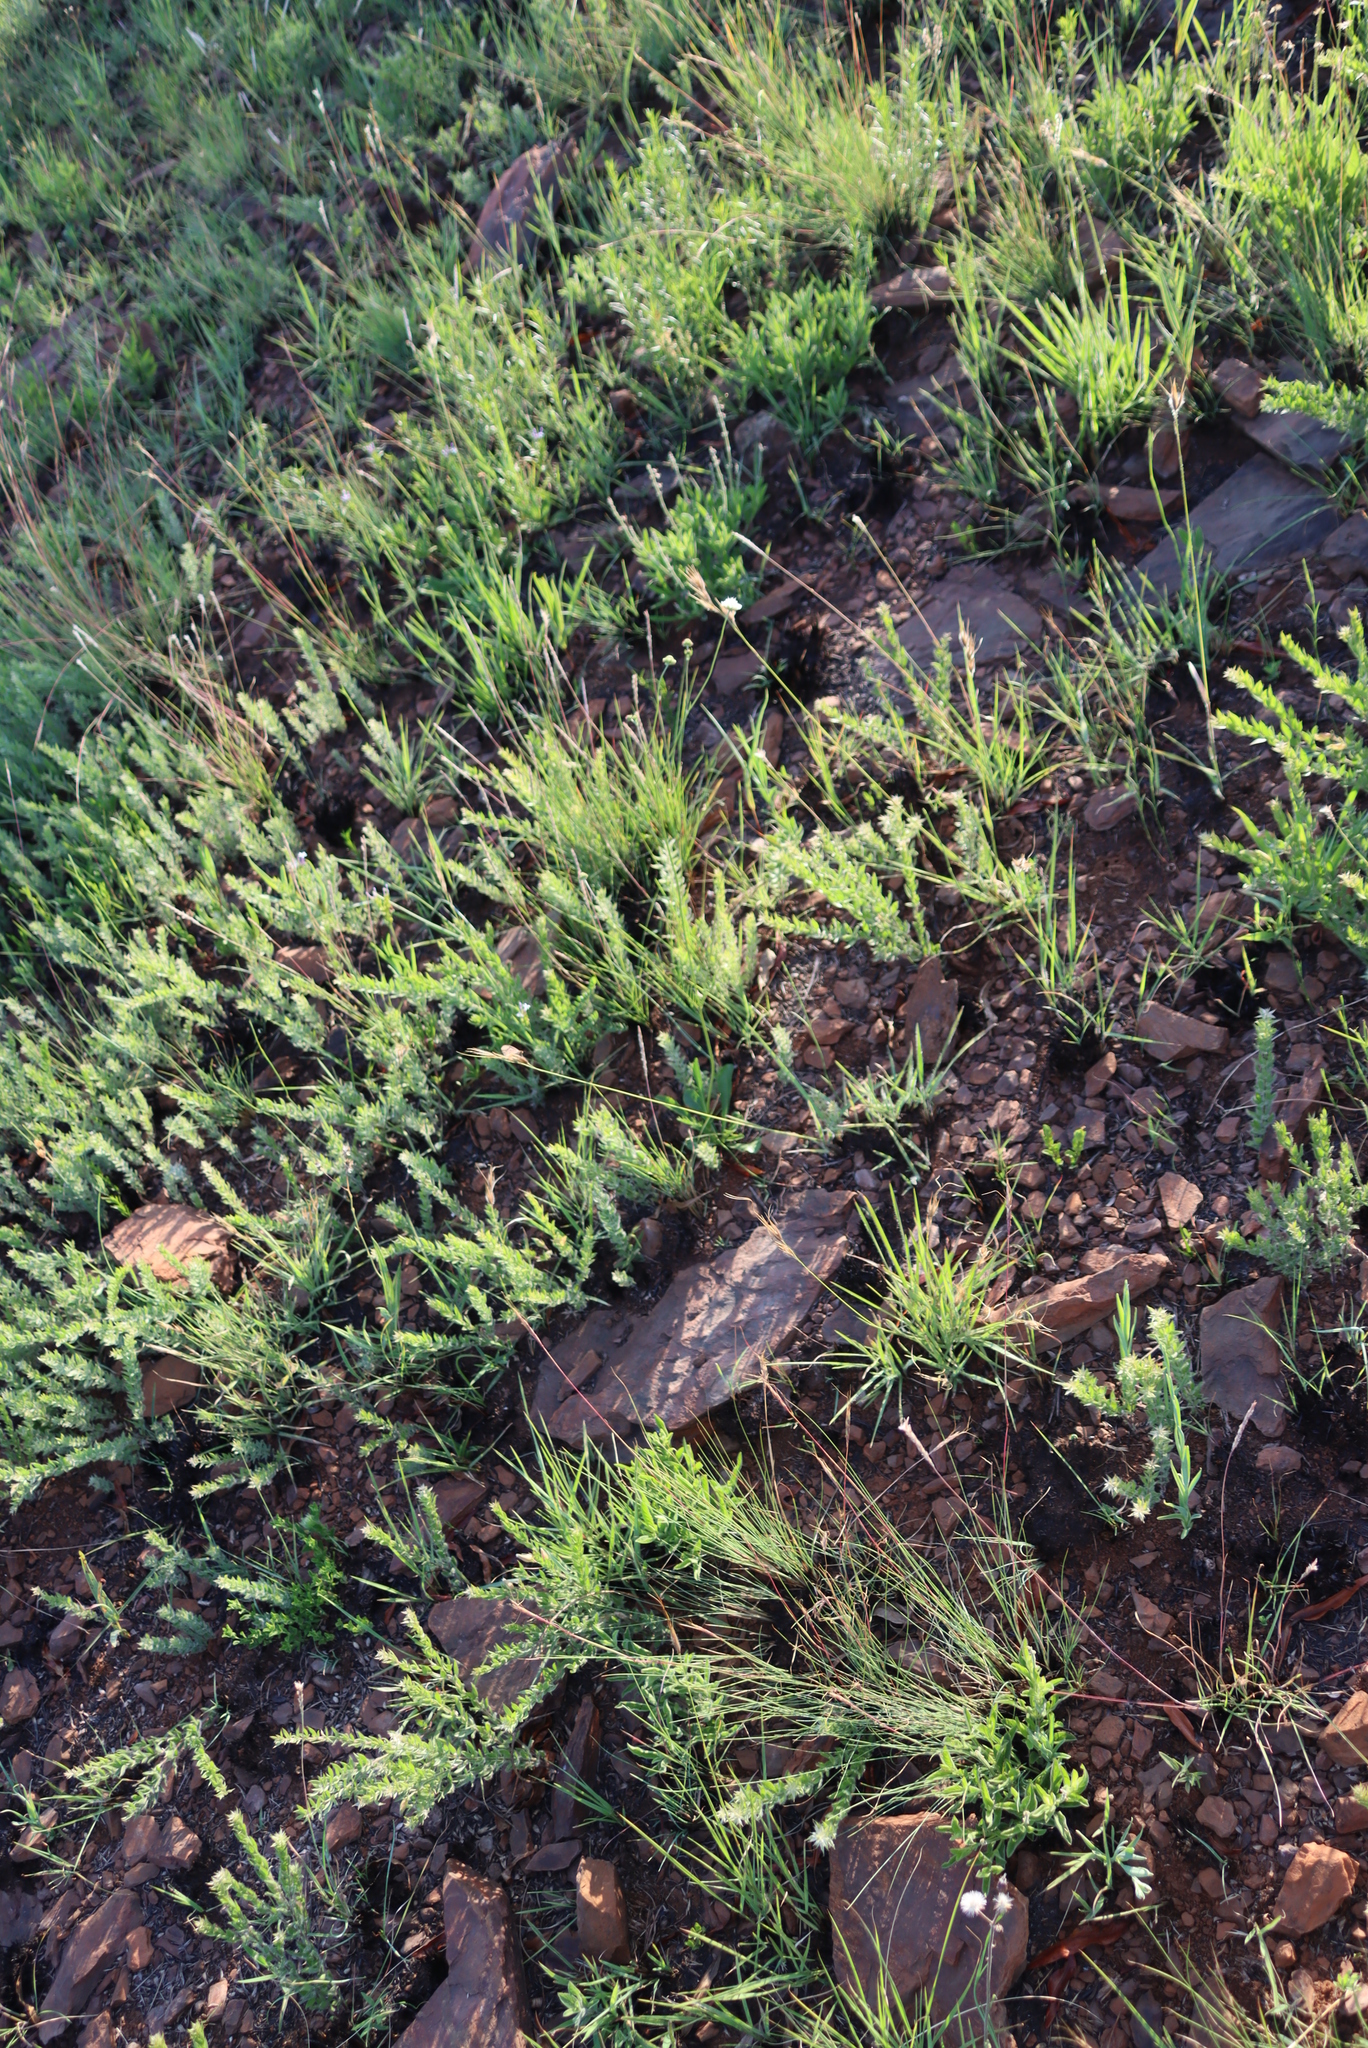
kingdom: Plantae
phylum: Tracheophyta
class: Magnoliopsida
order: Dipsacales
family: Caprifoliaceae
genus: Scabiosa
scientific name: Scabiosa columbaria
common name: Small scabious
